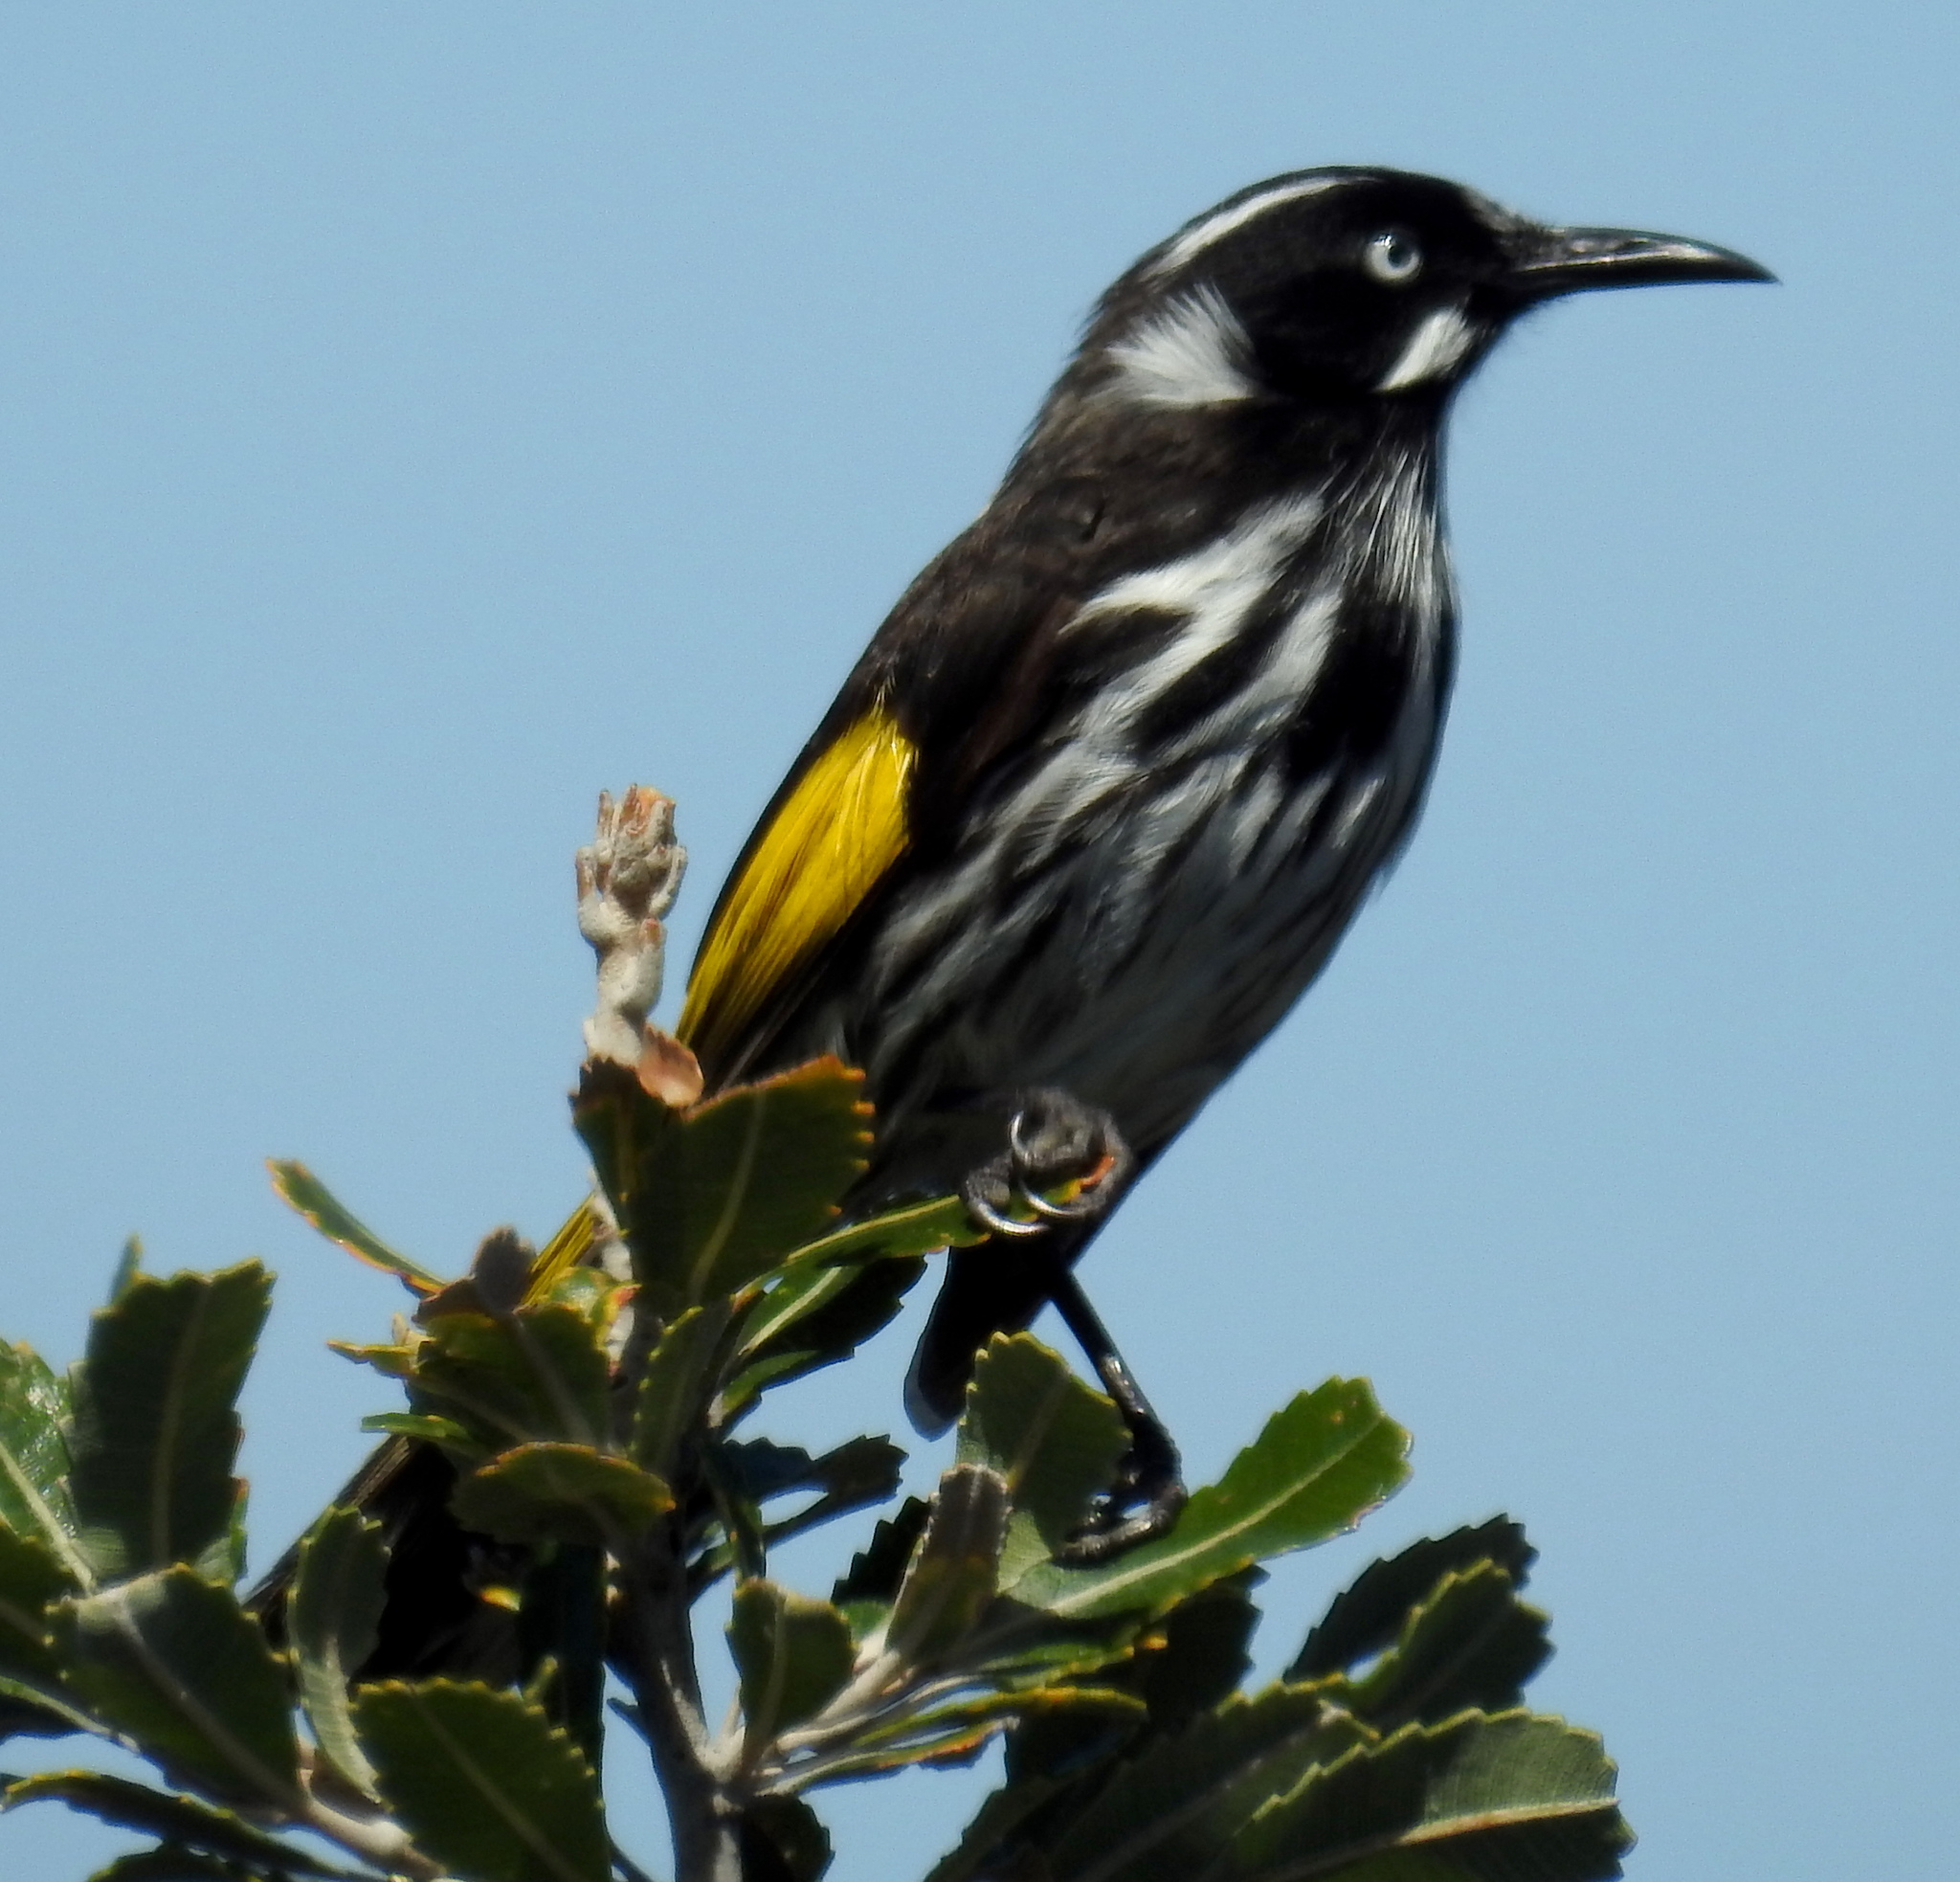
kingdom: Animalia
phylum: Chordata
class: Aves
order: Passeriformes
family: Meliphagidae
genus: Phylidonyris
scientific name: Phylidonyris novaehollandiae
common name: New holland honeyeater
